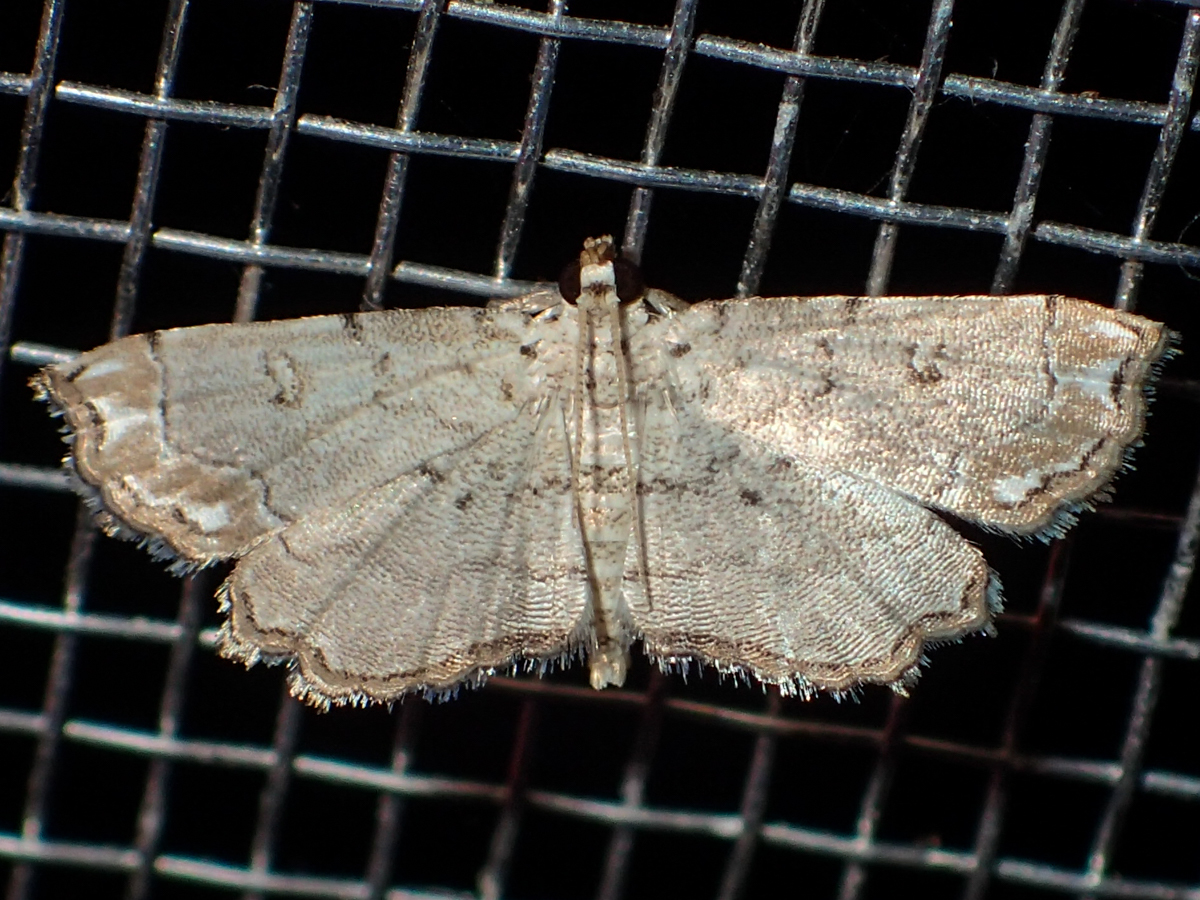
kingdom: Animalia
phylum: Arthropoda
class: Insecta
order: Lepidoptera
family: Crambidae
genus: Lygomusotima
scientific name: Lygomusotima
